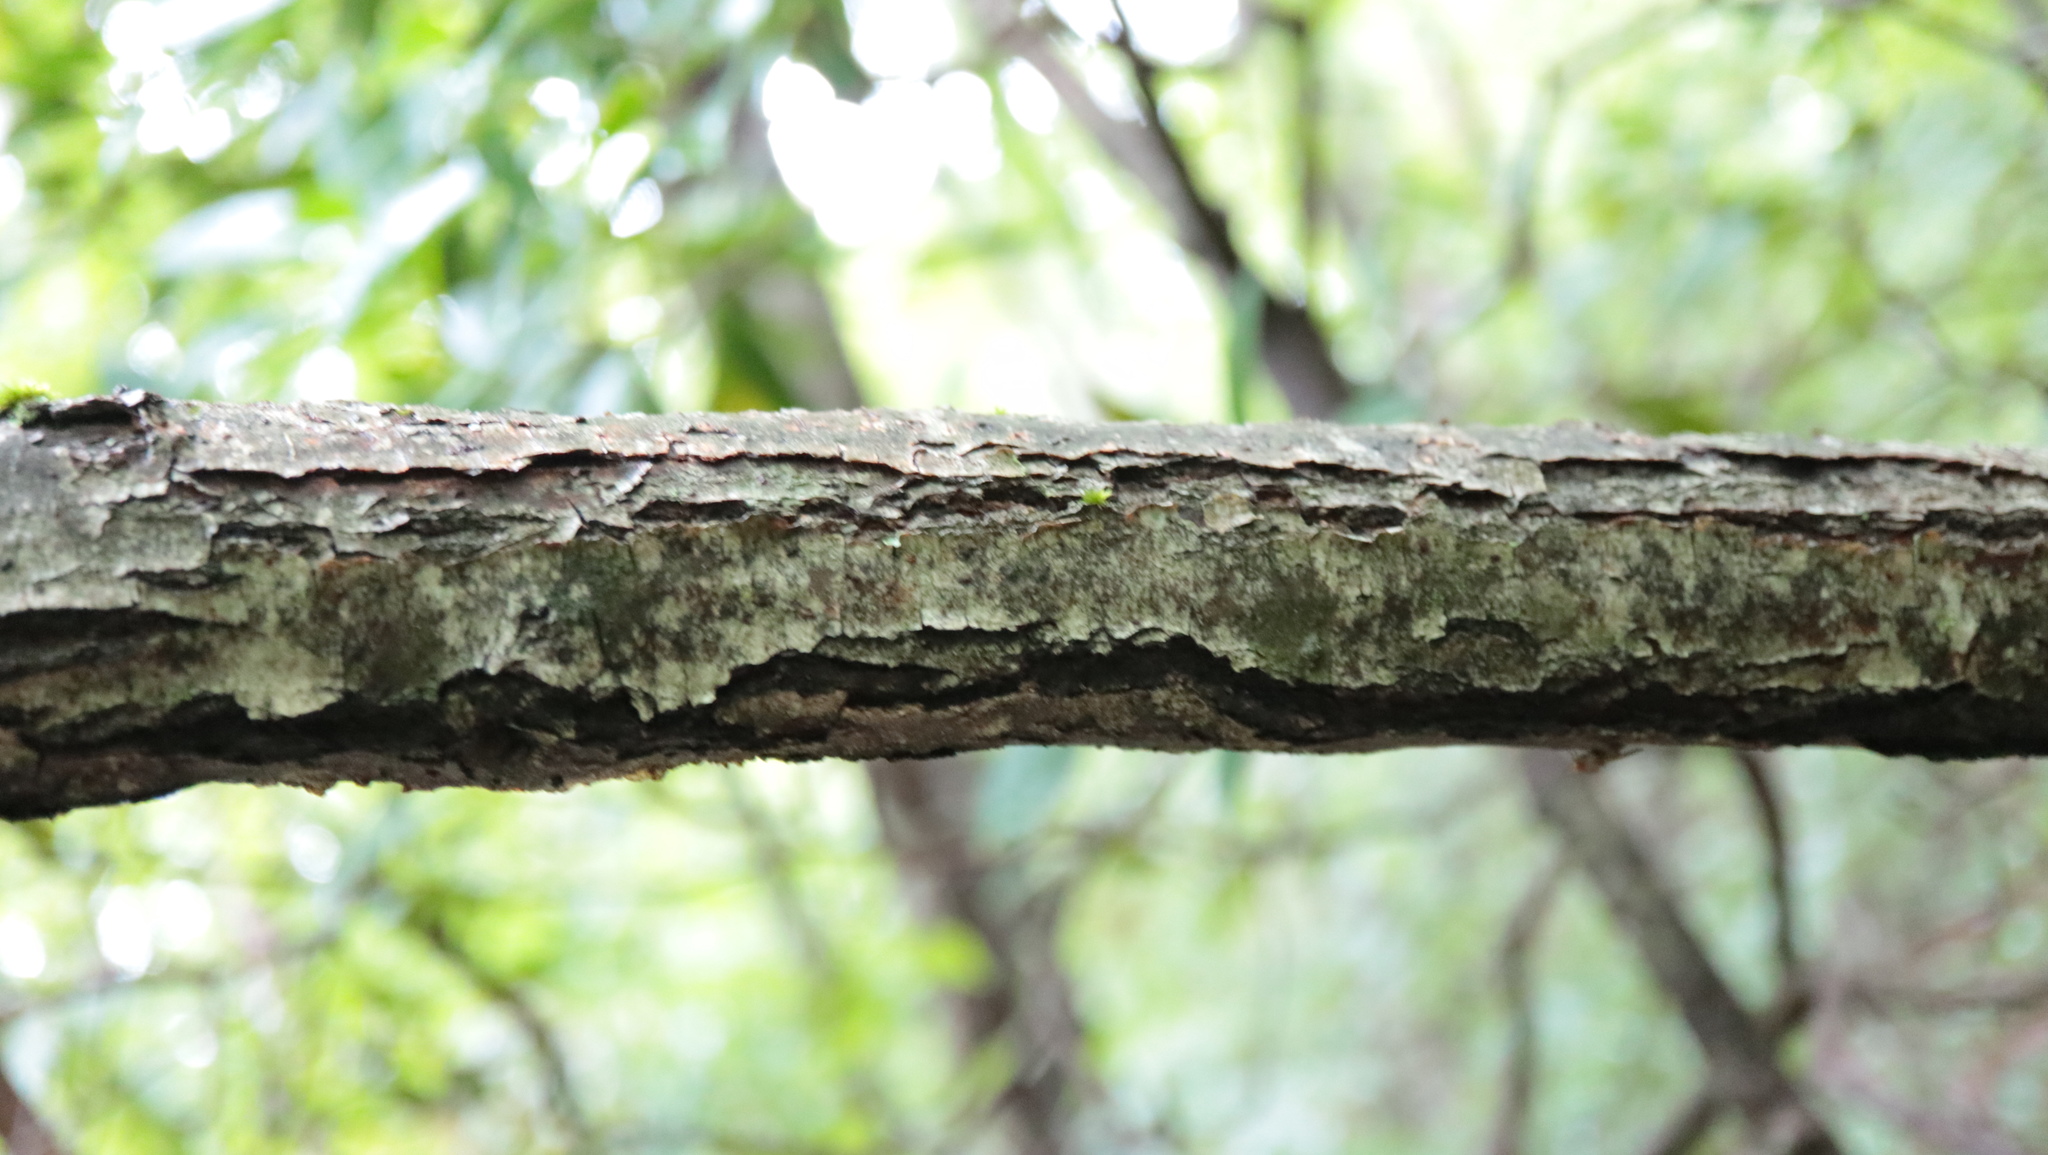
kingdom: Plantae
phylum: Tracheophyta
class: Magnoliopsida
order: Fagales
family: Fagaceae
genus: Castanea
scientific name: Castanea pumila
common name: Chinkapin
